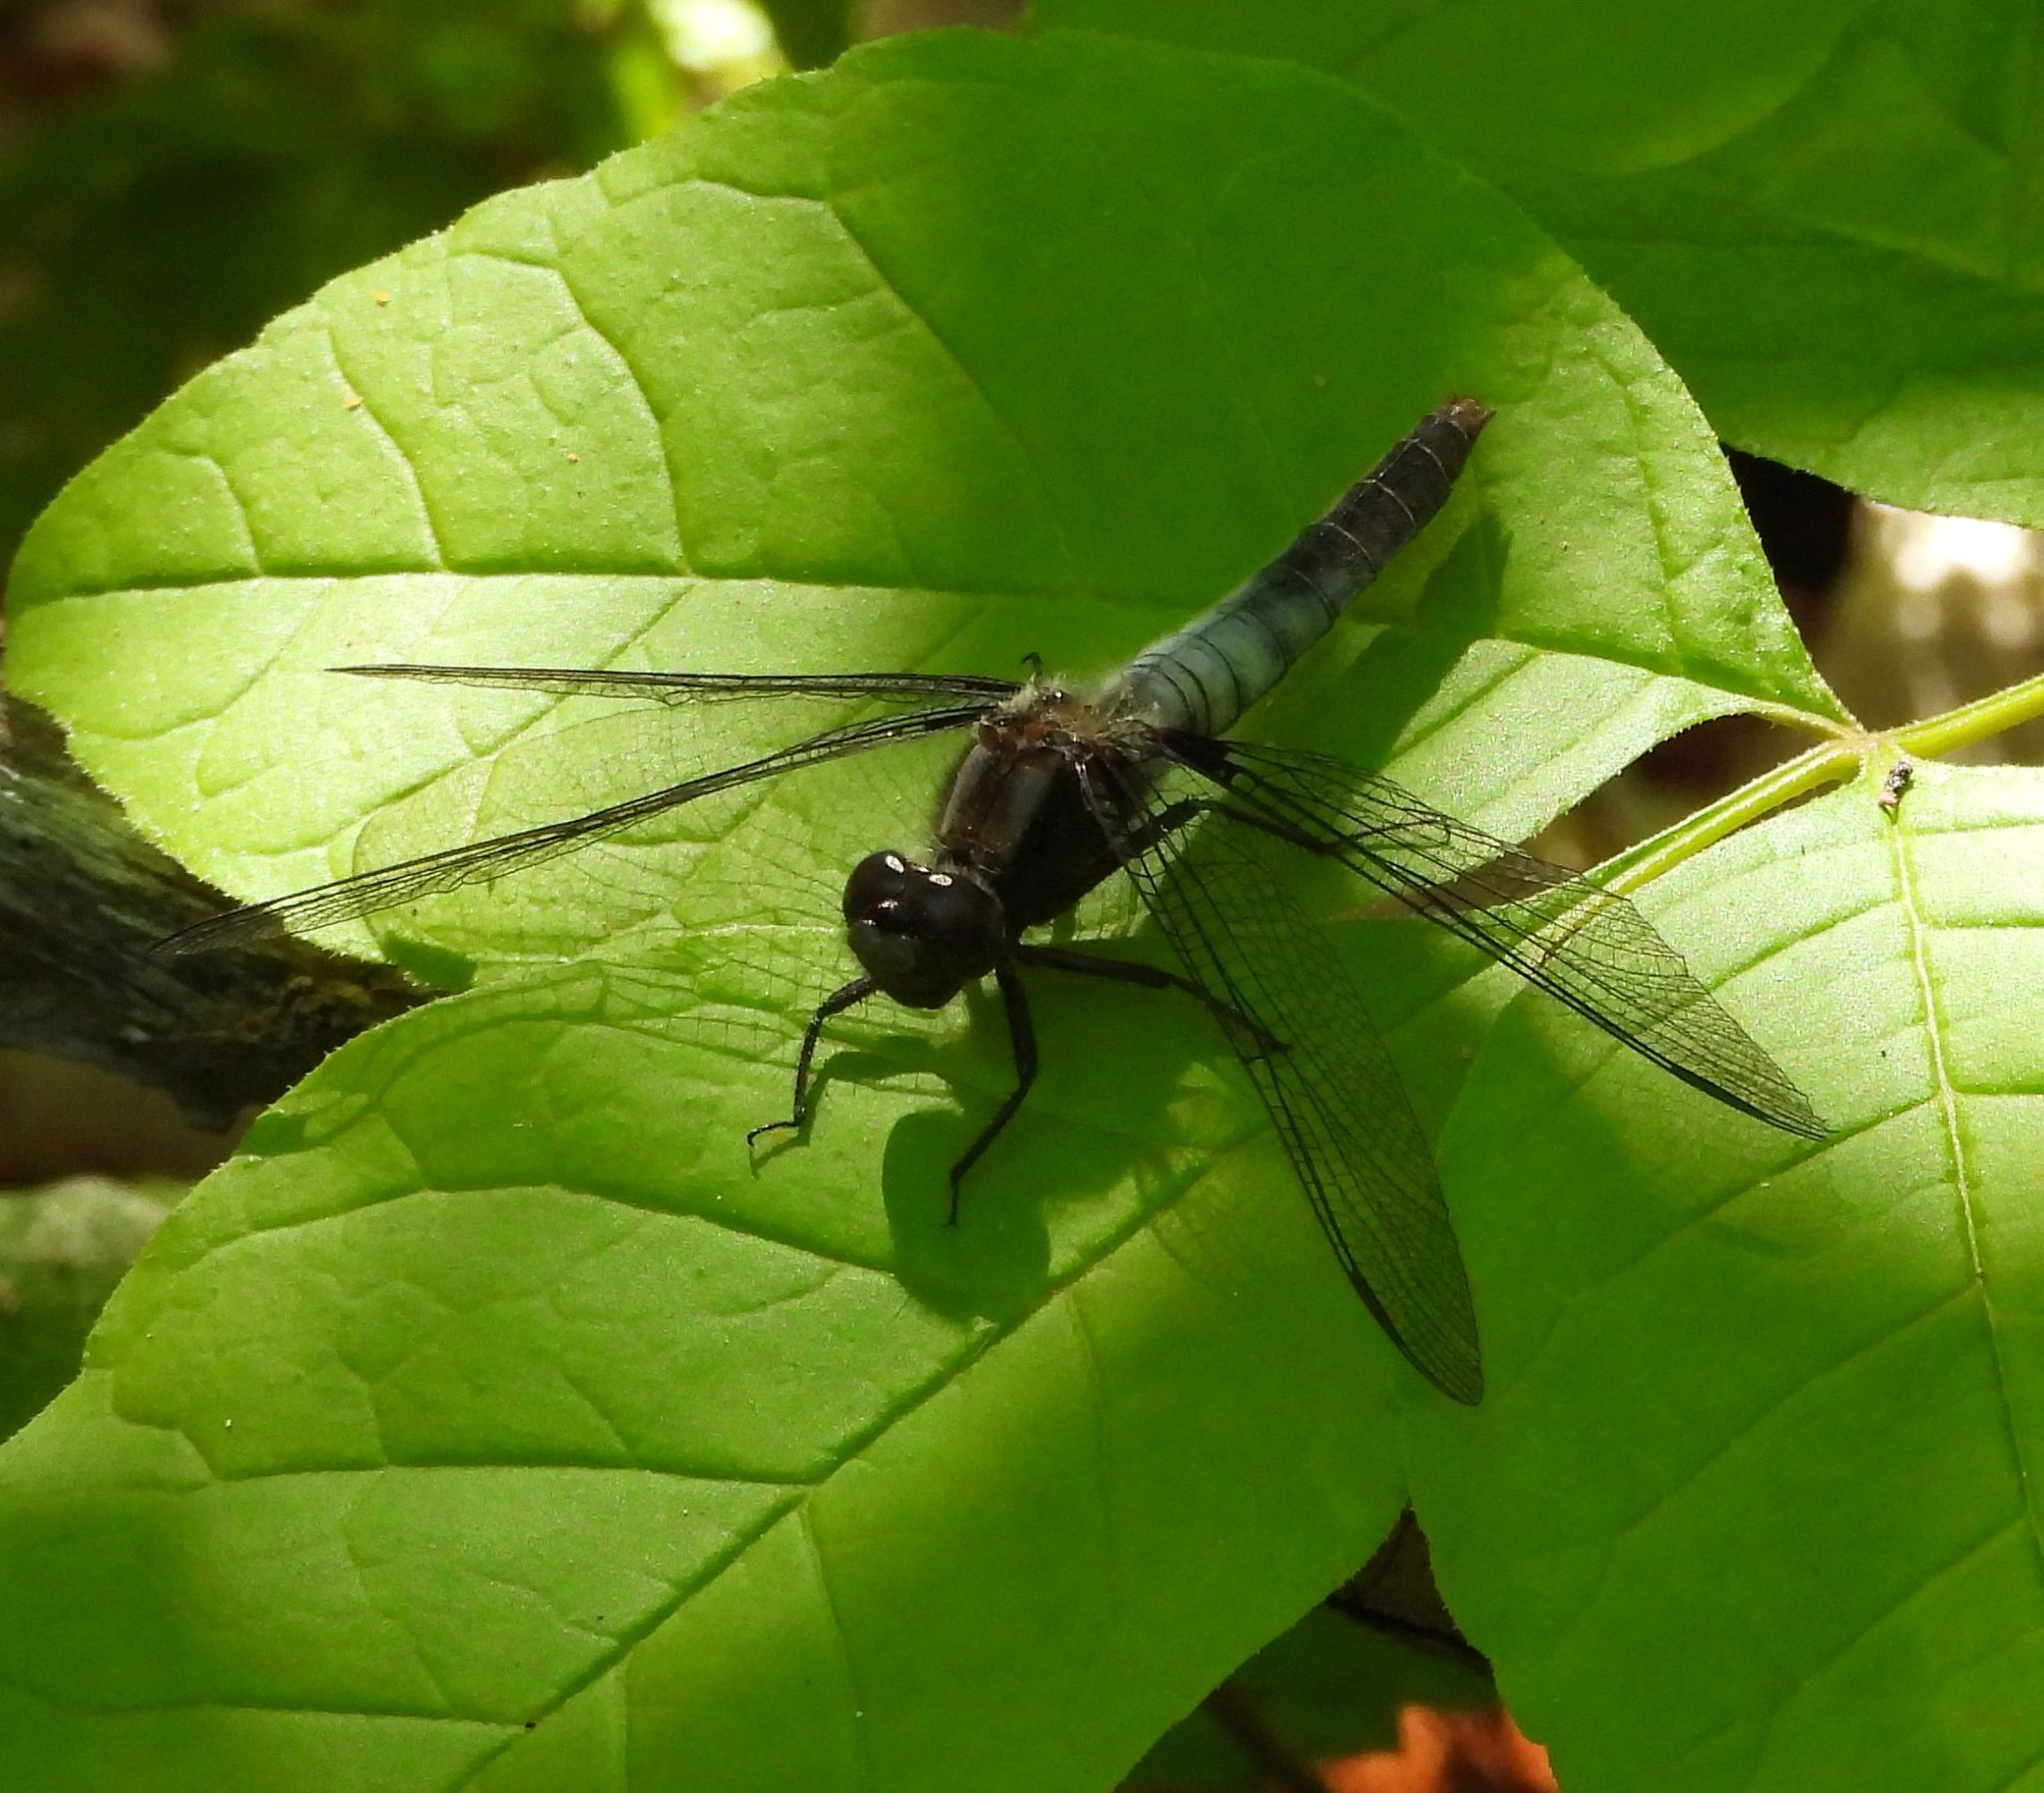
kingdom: Animalia
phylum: Arthropoda
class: Insecta
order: Odonata
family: Libellulidae
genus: Ladona
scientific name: Ladona julia
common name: Chalk-fronted corporal
